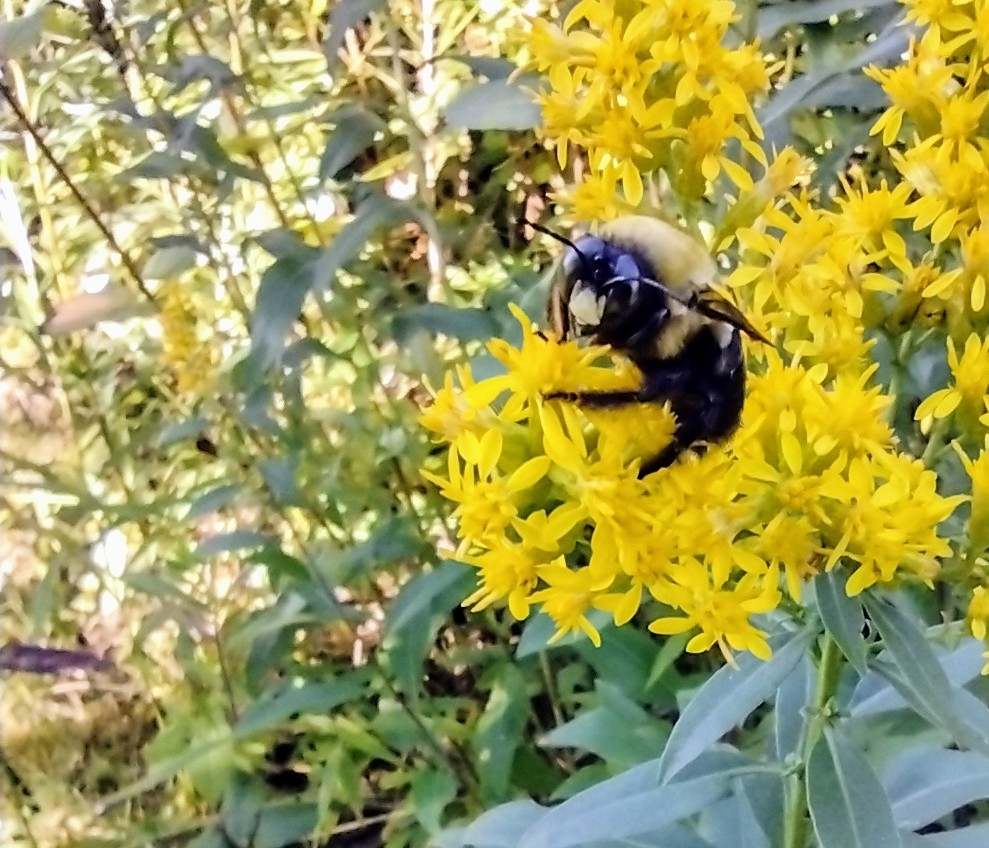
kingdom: Animalia
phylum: Arthropoda
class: Insecta
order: Hymenoptera
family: Apidae
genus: Xylocopa
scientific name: Xylocopa virginica
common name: Carpenter bee
